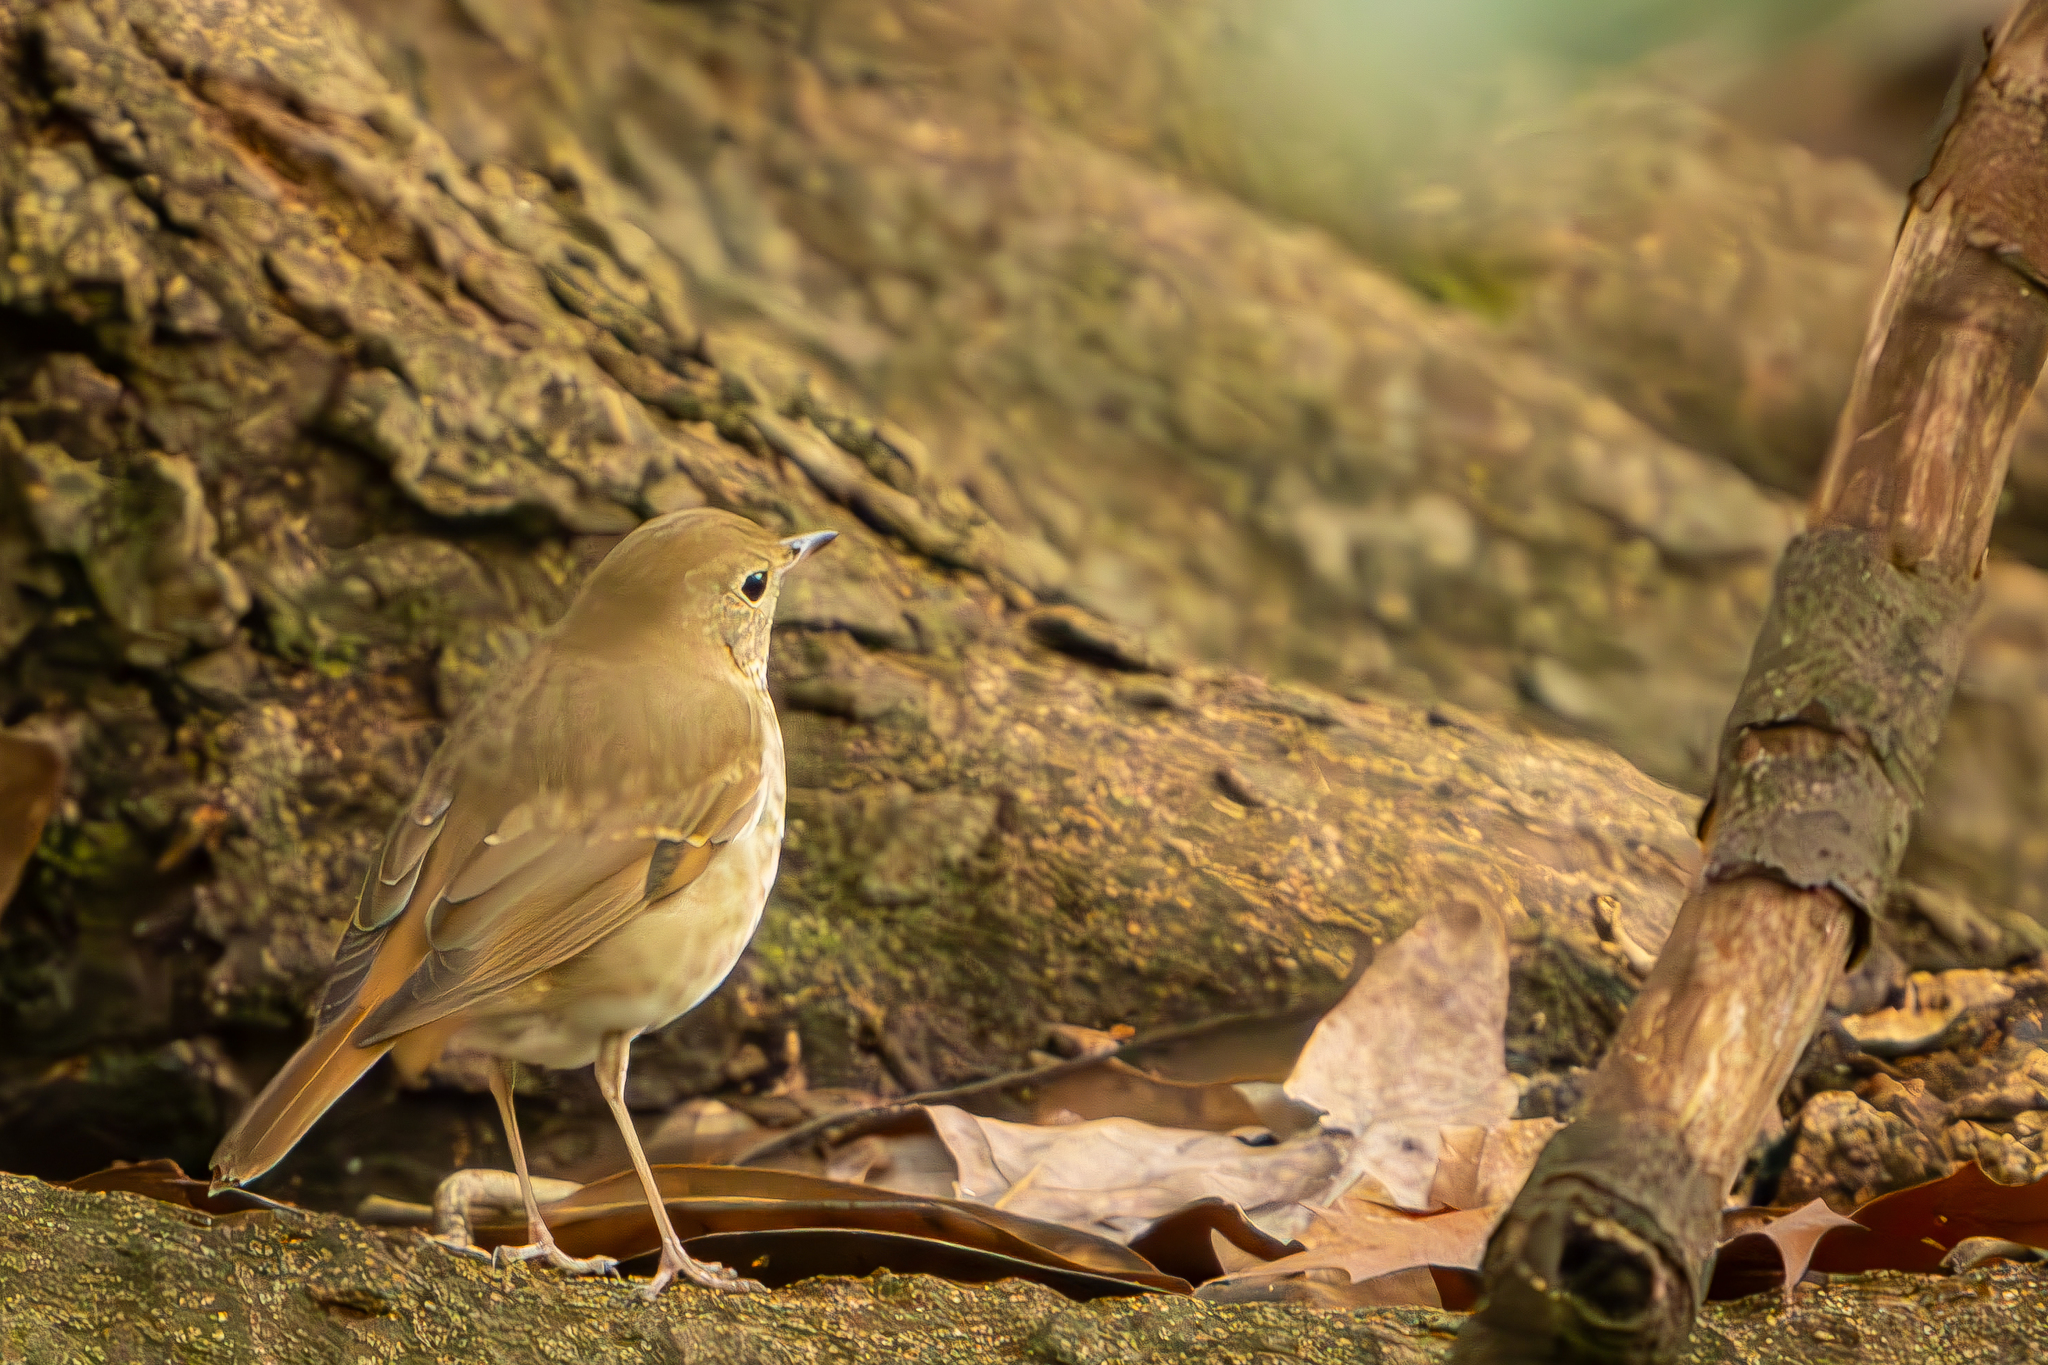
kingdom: Animalia
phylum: Chordata
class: Aves
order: Passeriformes
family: Turdidae
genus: Catharus
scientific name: Catharus guttatus
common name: Hermit thrush
